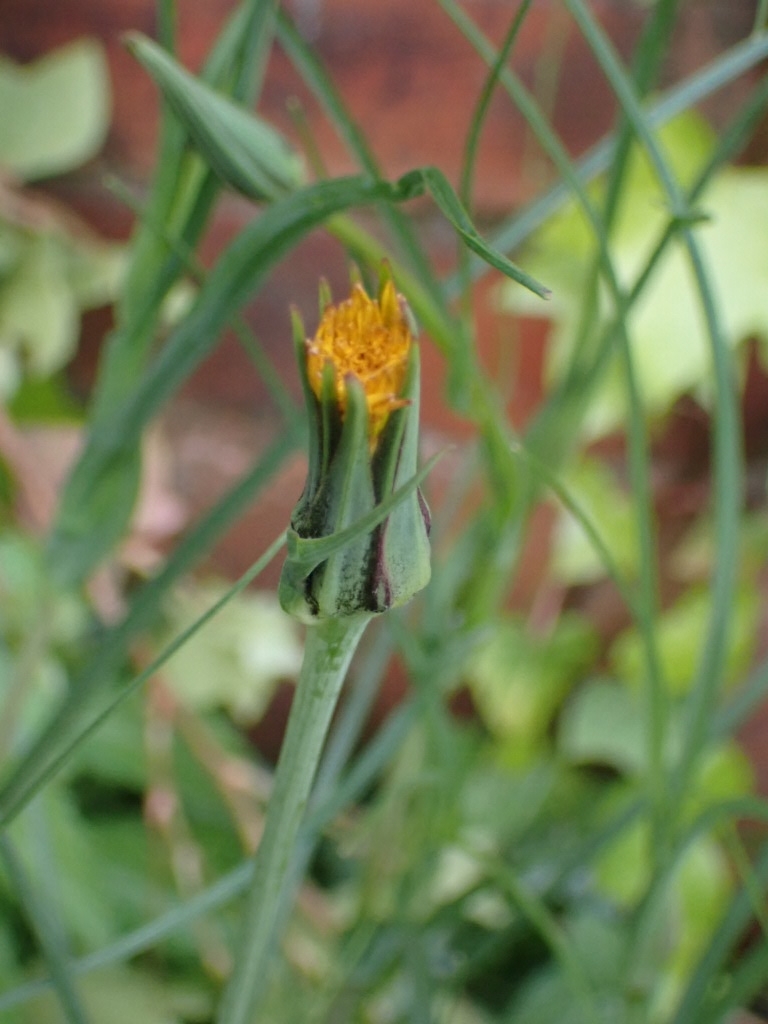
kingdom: Plantae
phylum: Tracheophyta
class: Magnoliopsida
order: Asterales
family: Asteraceae
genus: Tragopogon
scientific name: Tragopogon pratensis
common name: Goat's-beard
